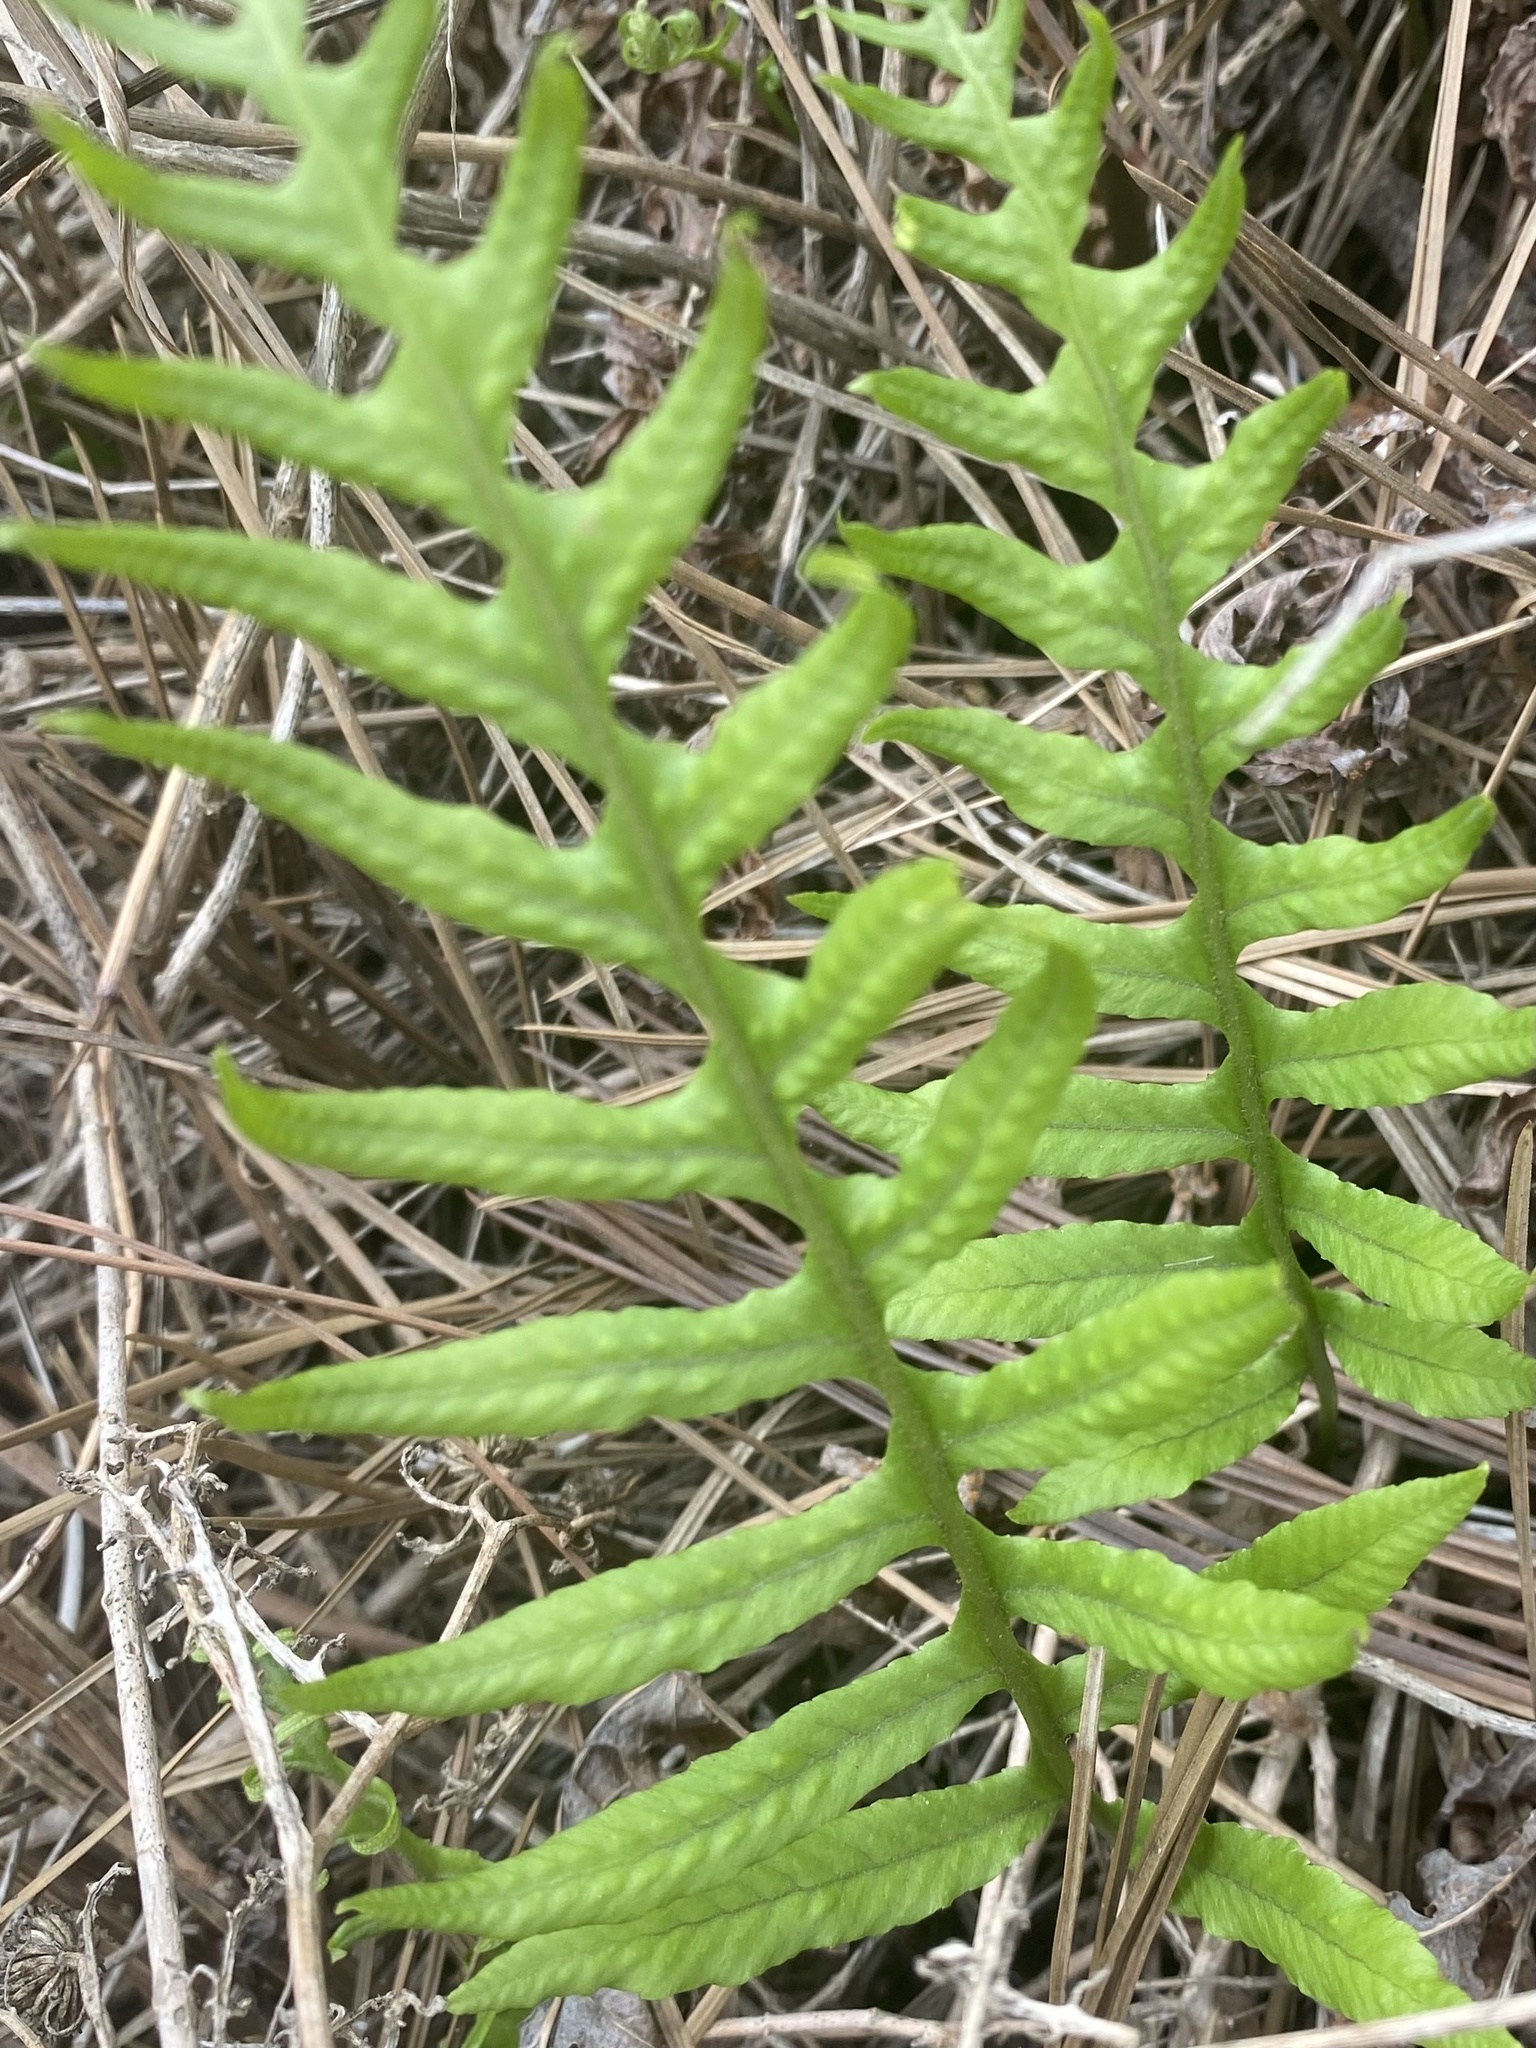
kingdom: Plantae
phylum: Tracheophyta
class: Polypodiopsida
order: Polypodiales
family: Polypodiaceae
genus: Polypodium
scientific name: Polypodium californicum
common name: California polypody
